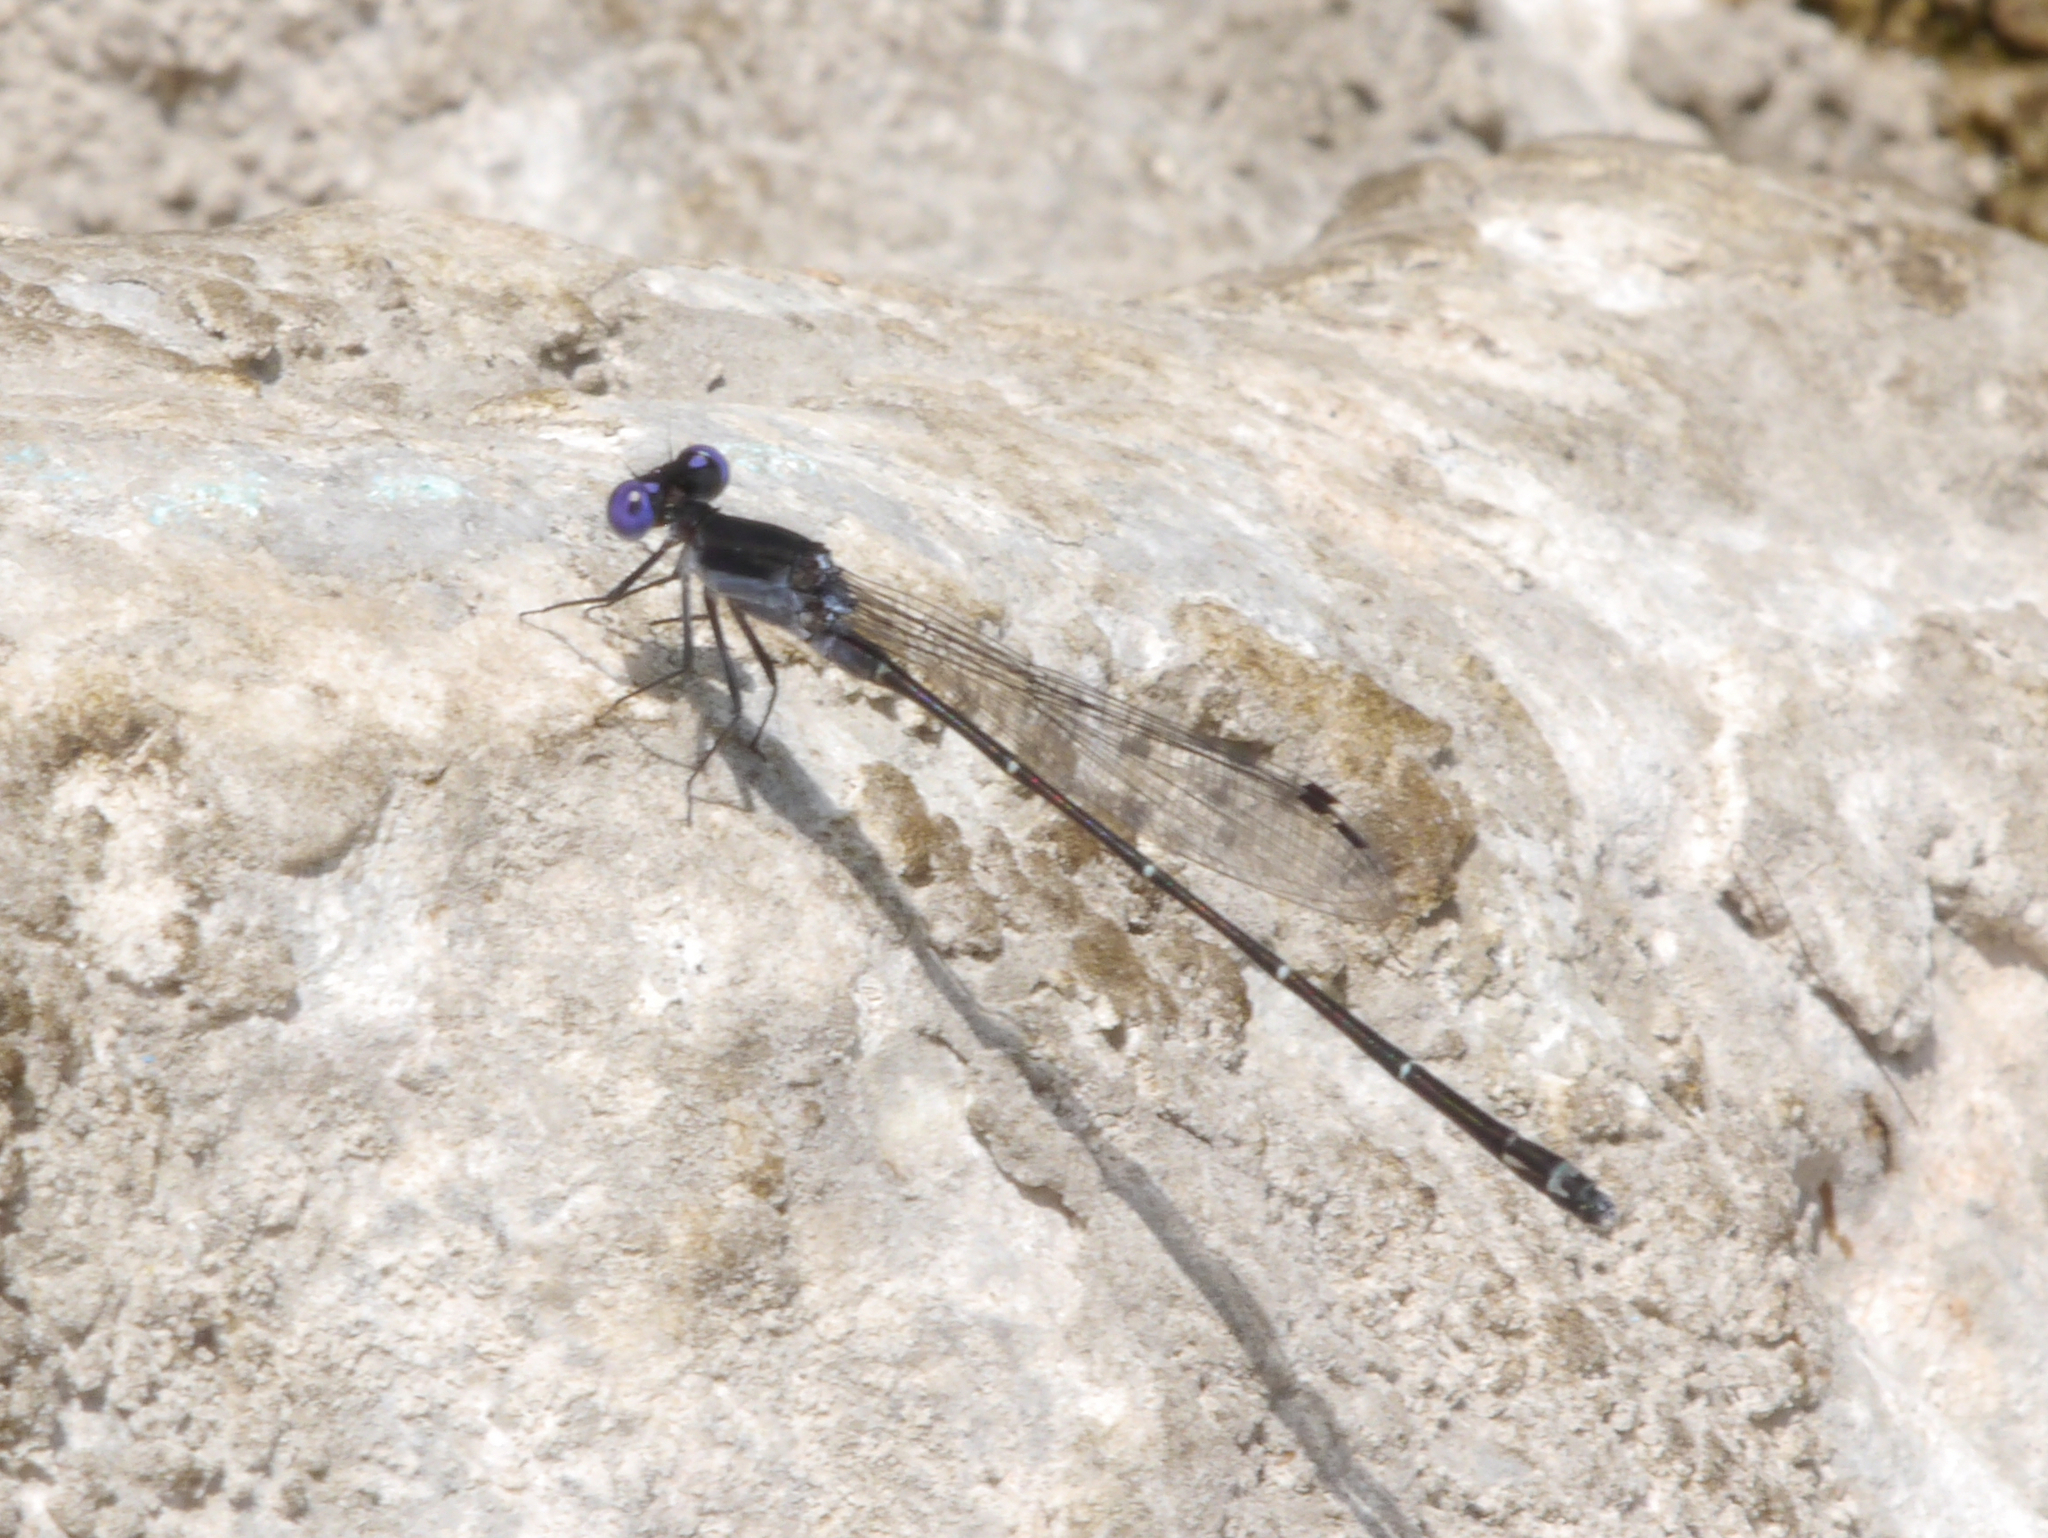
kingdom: Animalia
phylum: Arthropoda
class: Insecta
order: Odonata
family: Coenagrionidae
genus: Argia
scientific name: Argia translata
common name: Dusky dancer
